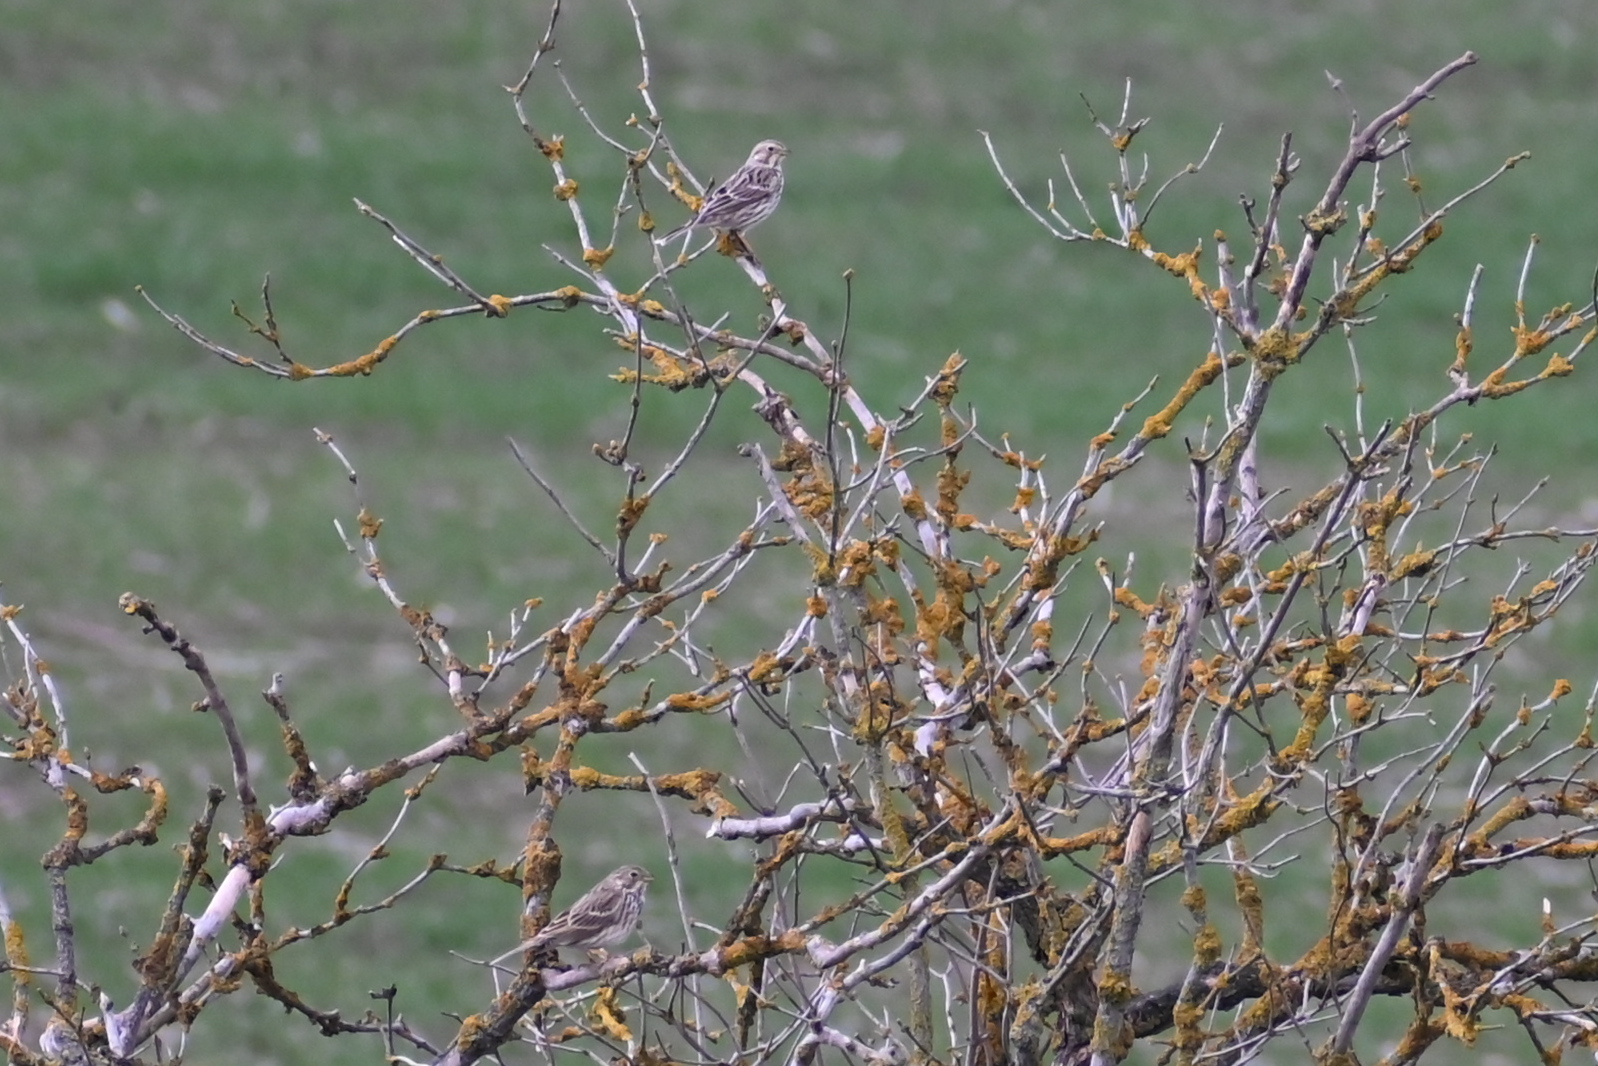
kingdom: Animalia
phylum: Chordata
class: Aves
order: Passeriformes
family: Emberizidae
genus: Emberiza
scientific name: Emberiza calandra
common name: Corn bunting
